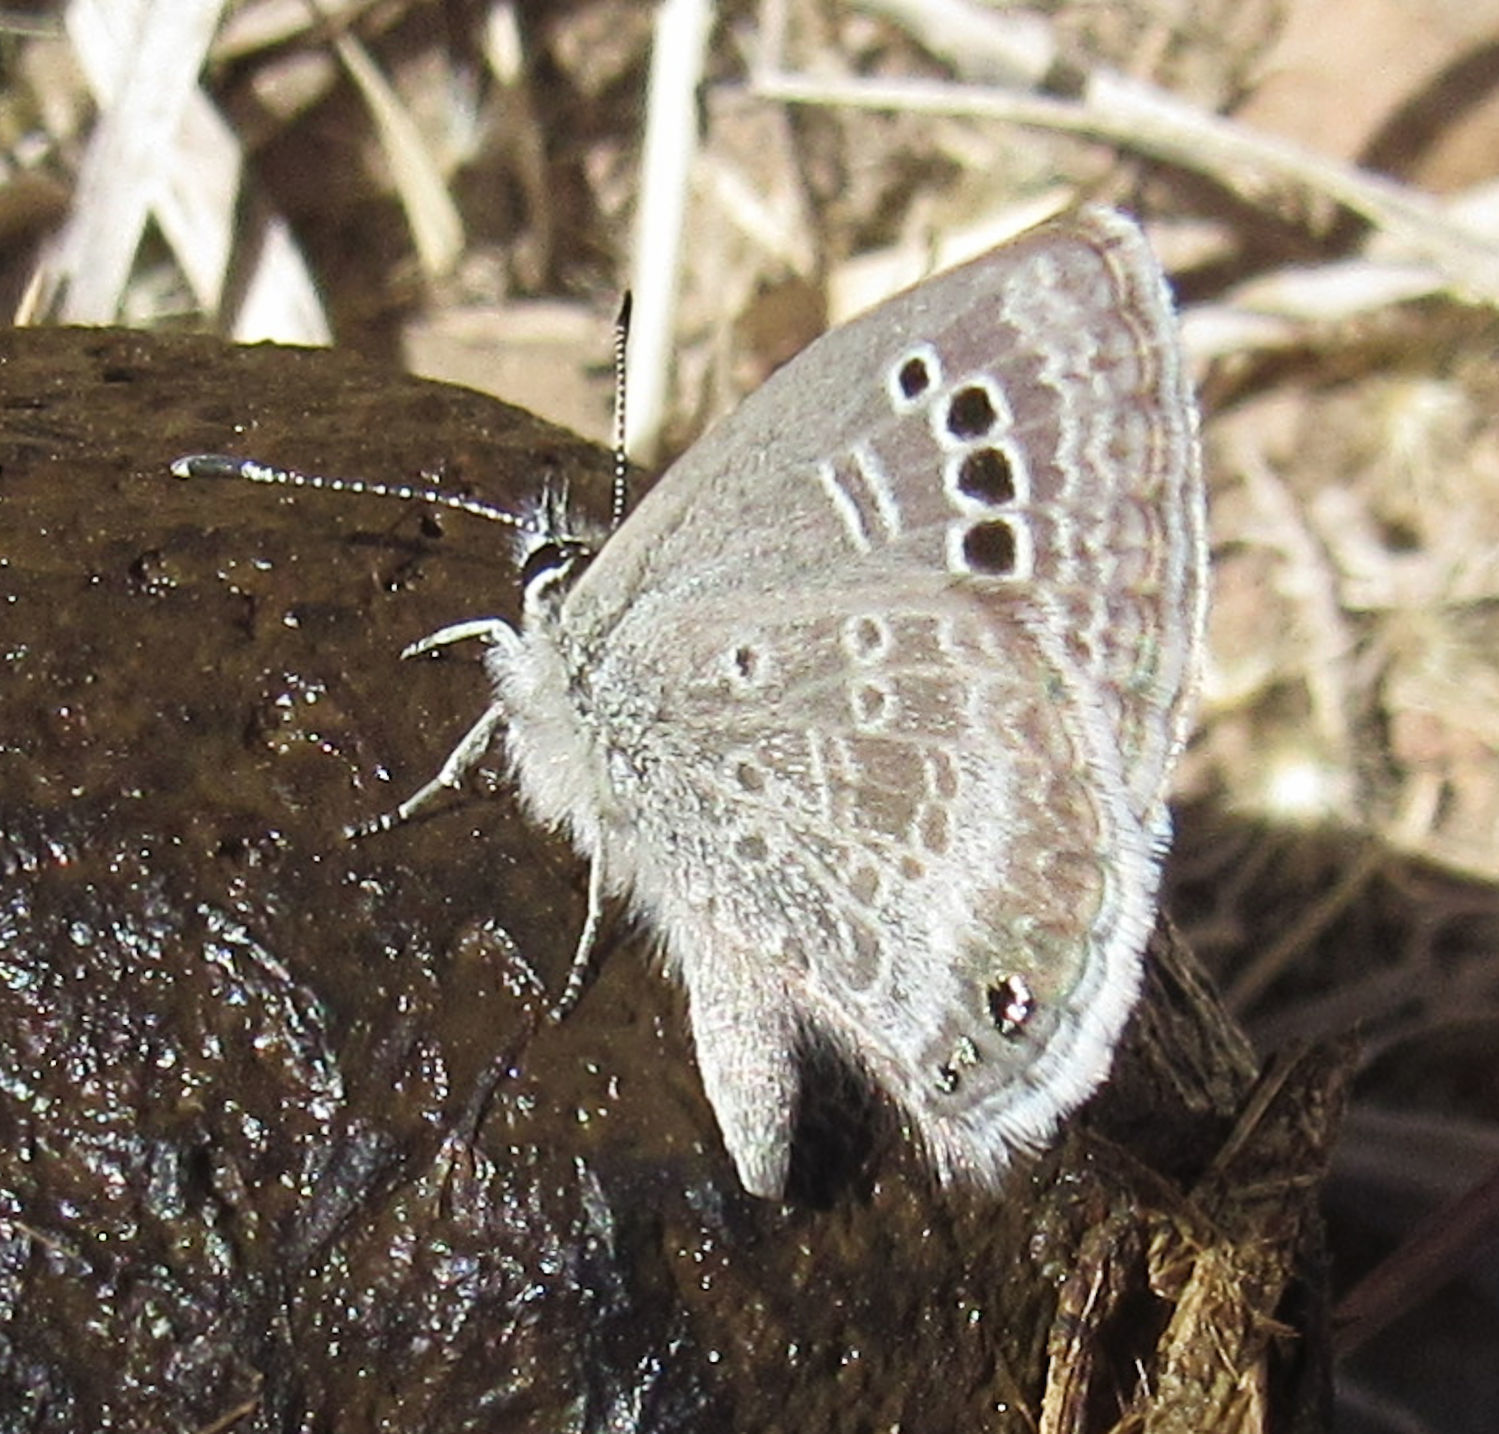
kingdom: Animalia
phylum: Arthropoda
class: Insecta
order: Lepidoptera
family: Lycaenidae
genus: Echinargus
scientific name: Echinargus isola
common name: Reakirt's blue
